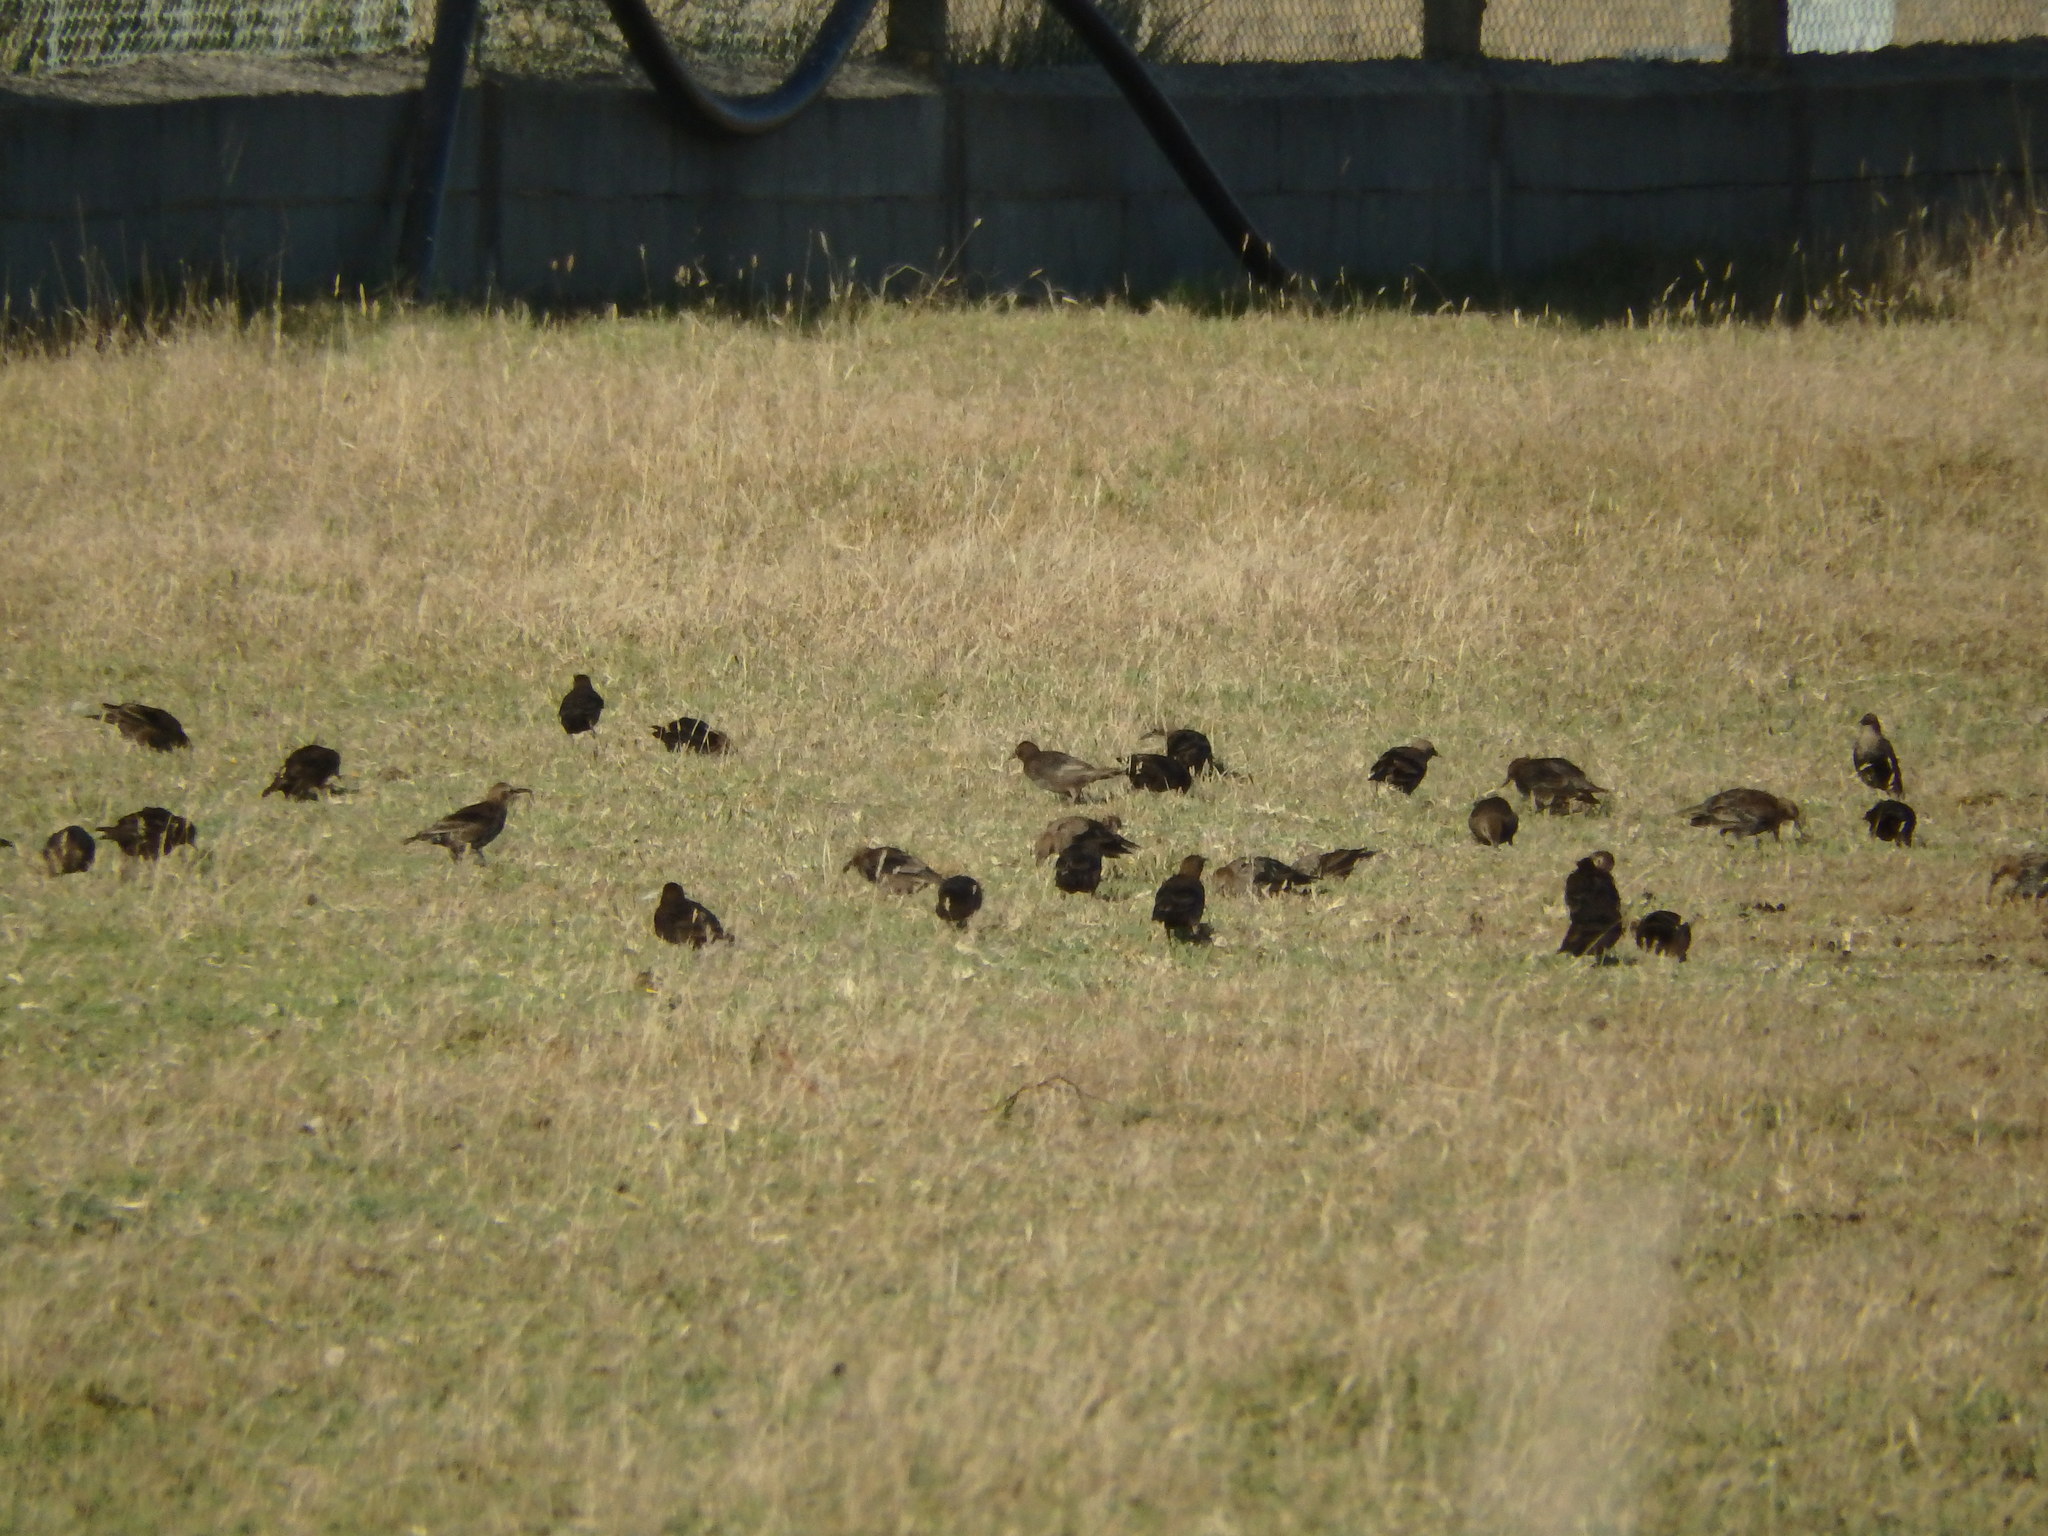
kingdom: Animalia
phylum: Chordata
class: Aves
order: Passeriformes
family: Sturnidae
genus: Sturnus
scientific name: Sturnus unicolor
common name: Spotless starling
